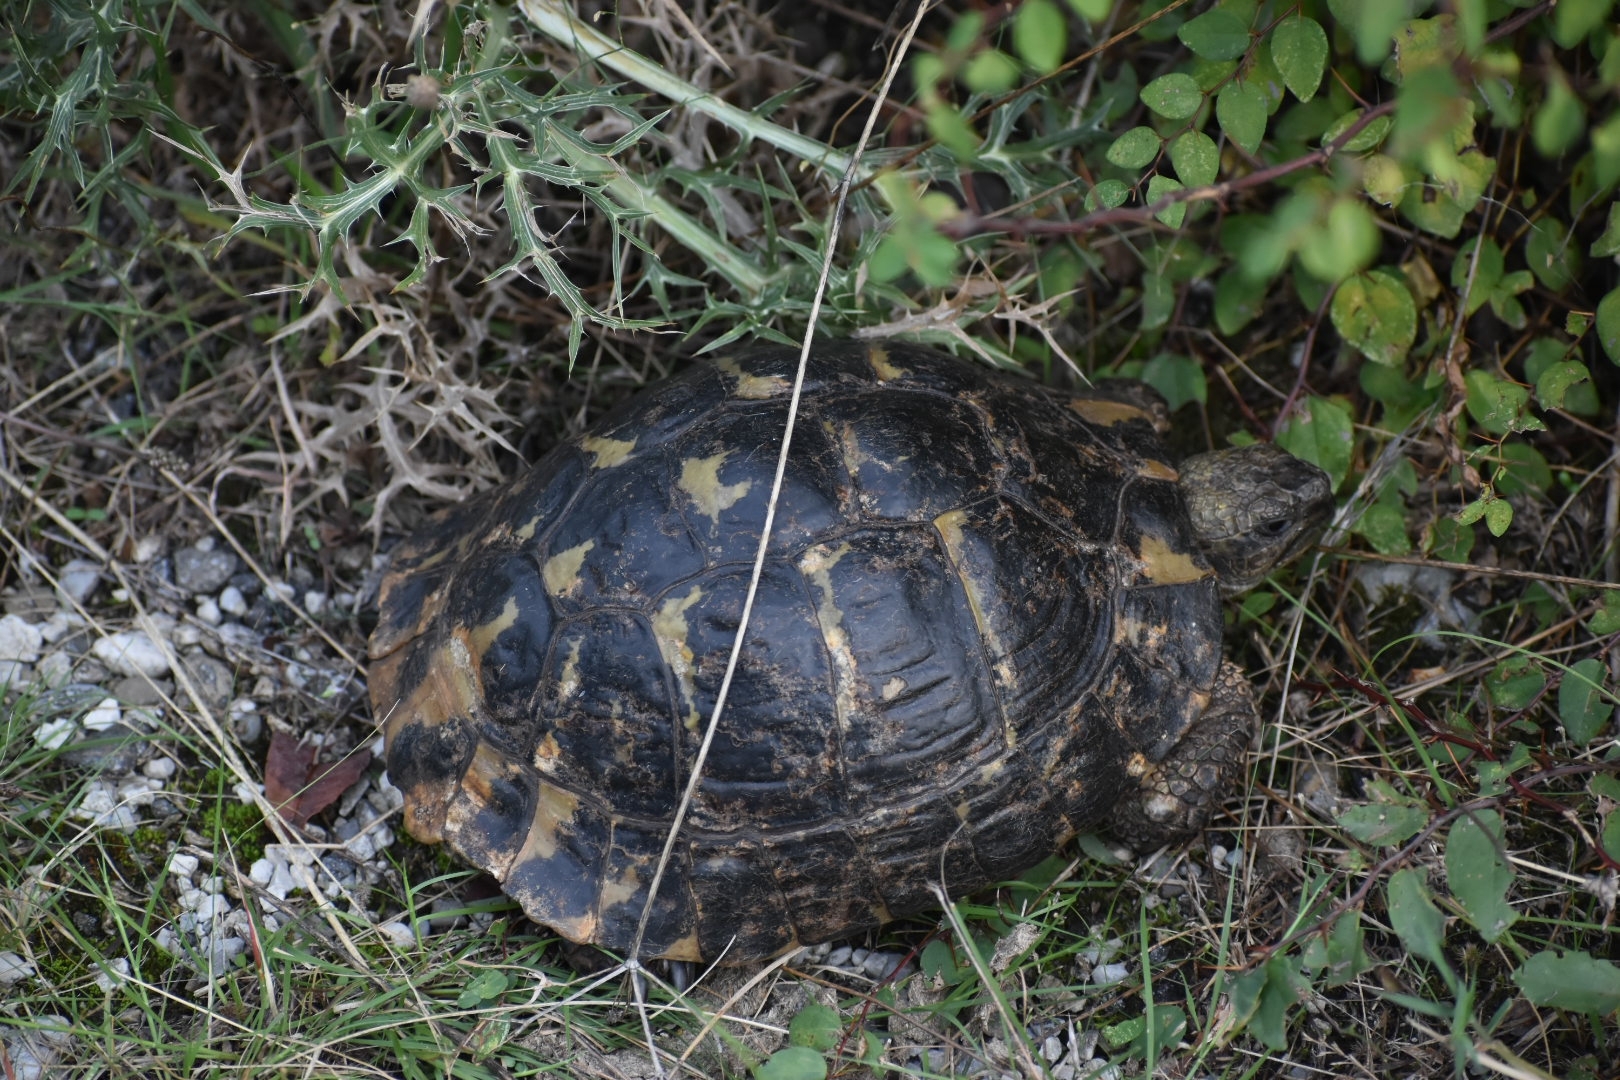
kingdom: Animalia
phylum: Chordata
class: Testudines
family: Testudinidae
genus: Testudo
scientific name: Testudo hermanni
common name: Hermann's tortoise
